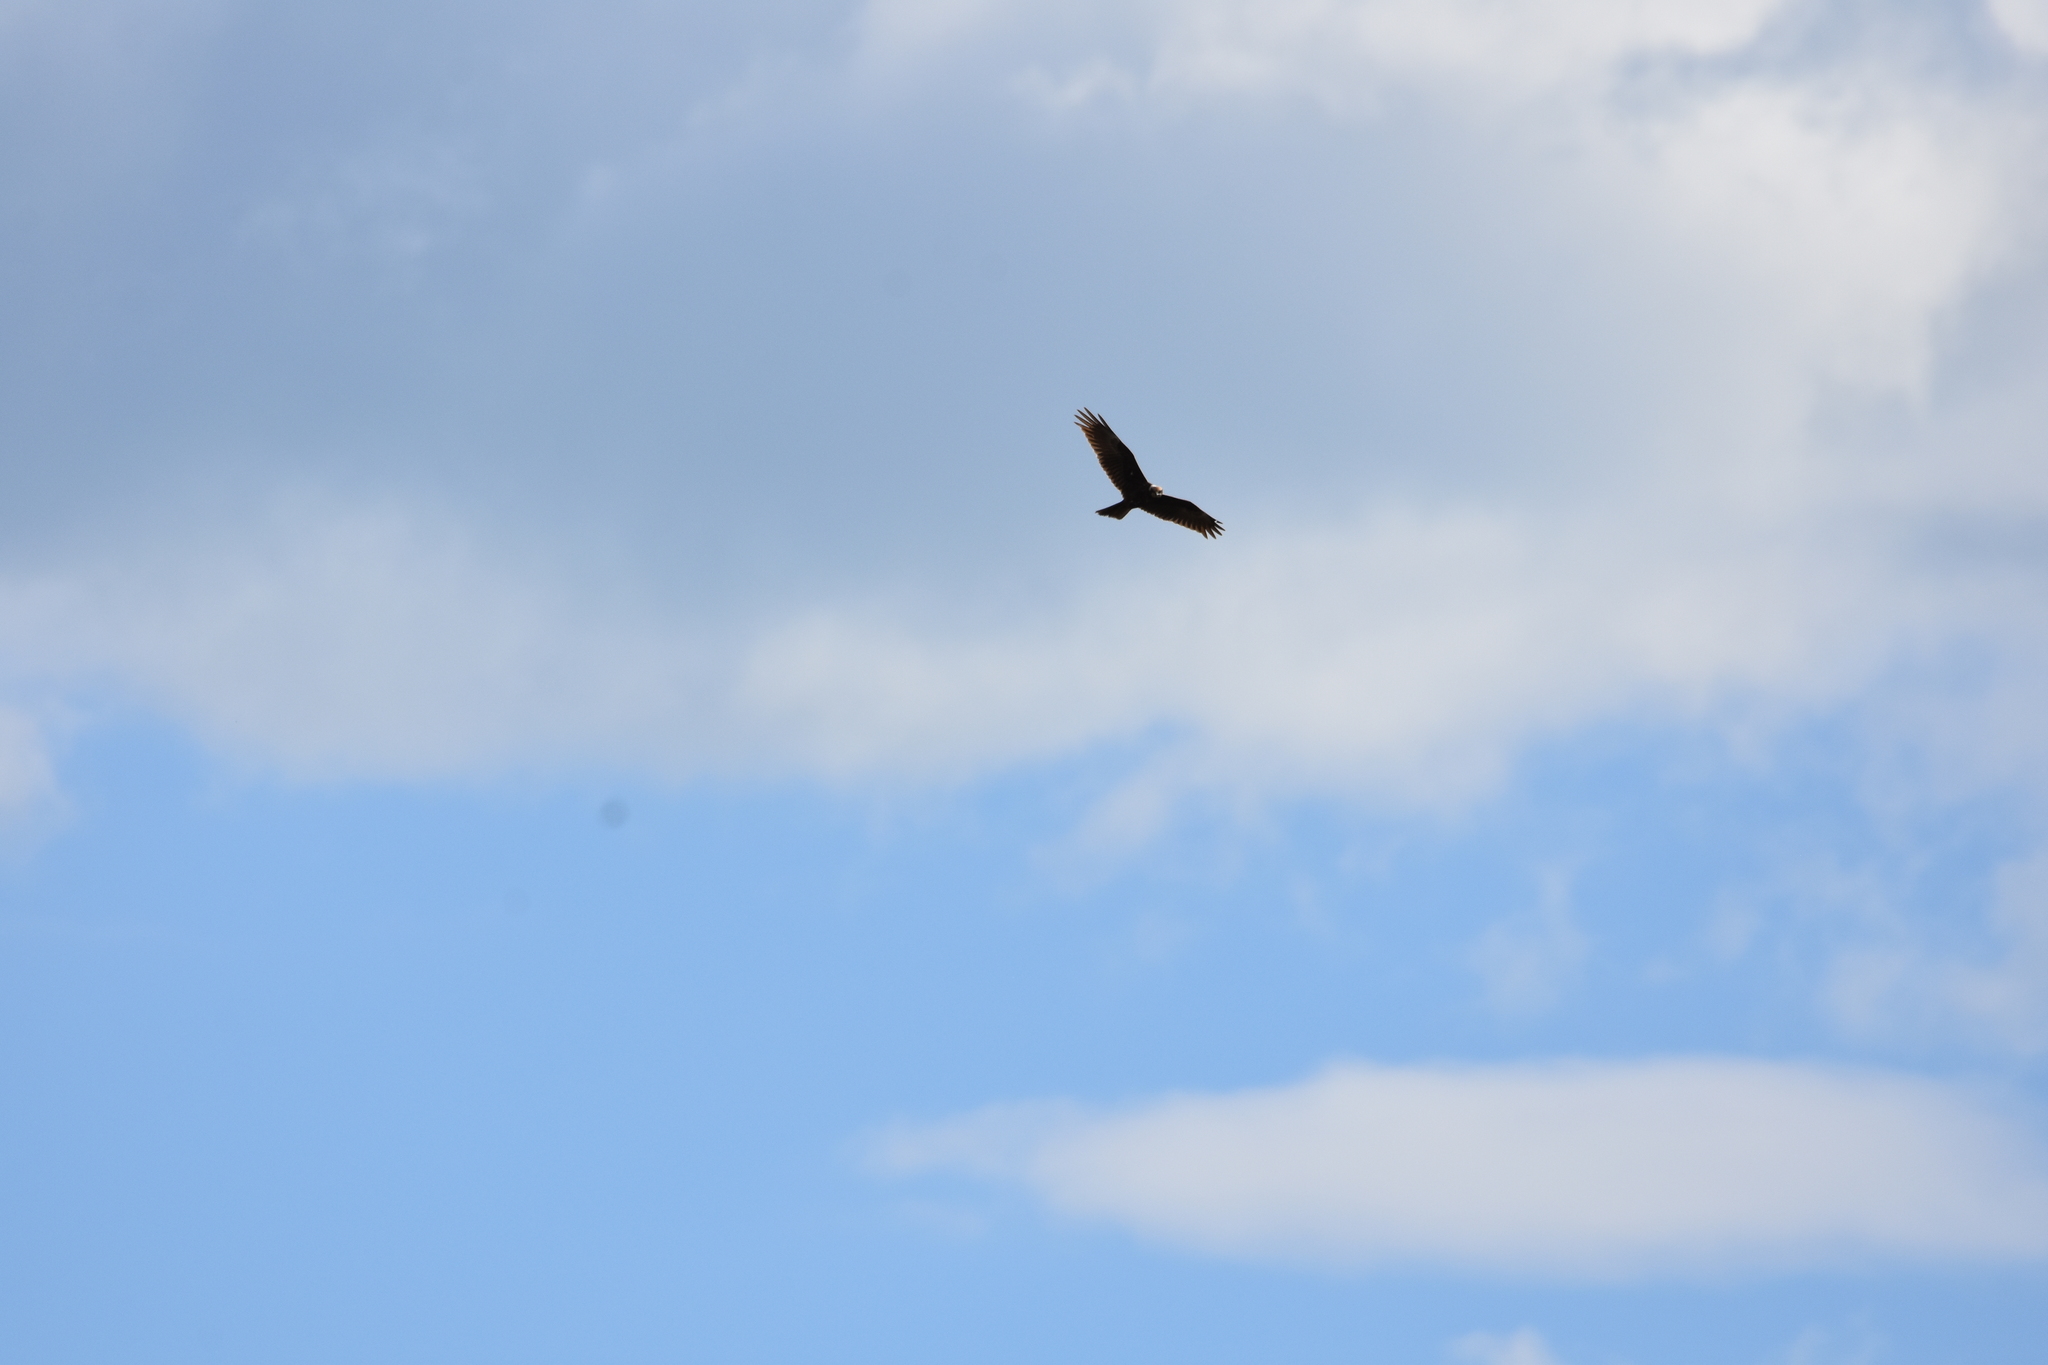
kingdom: Animalia
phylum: Chordata
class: Aves
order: Accipitriformes
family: Accipitridae
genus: Circus
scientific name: Circus aeruginosus
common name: Western marsh harrier
